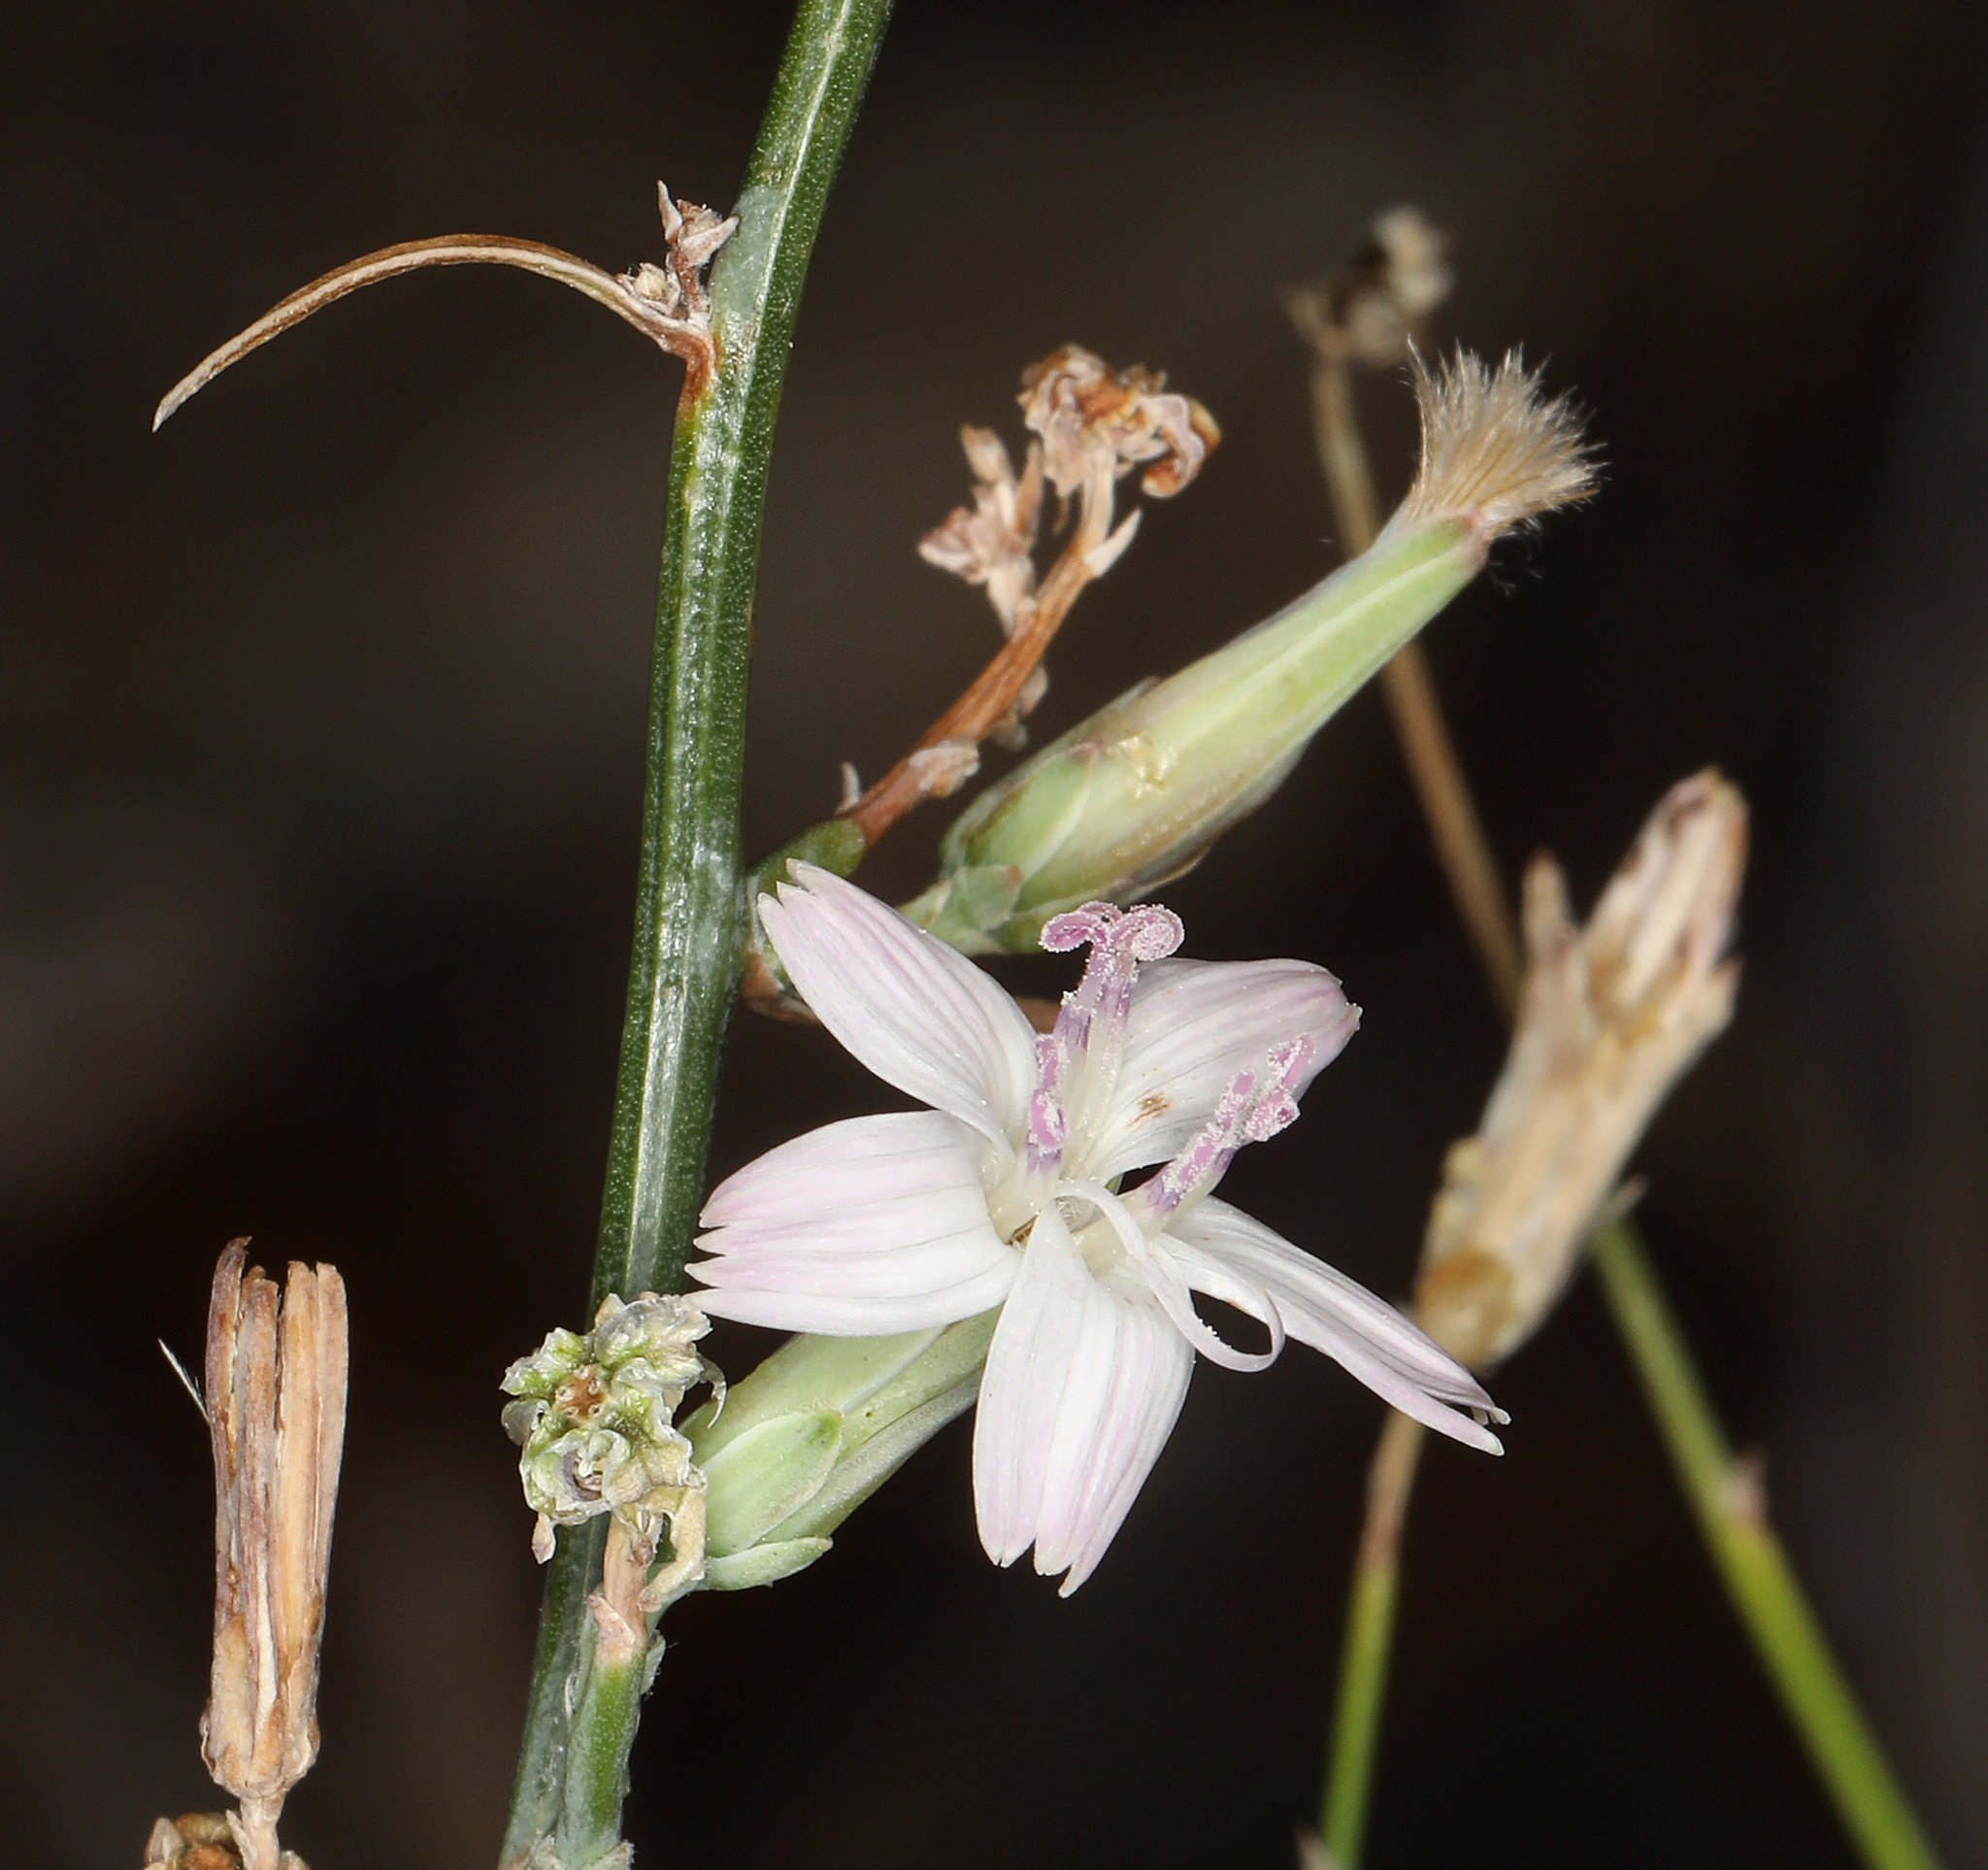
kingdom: Plantae
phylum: Tracheophyta
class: Magnoliopsida
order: Asterales
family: Asteraceae
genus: Stephanomeria
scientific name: Stephanomeria pauciflora
